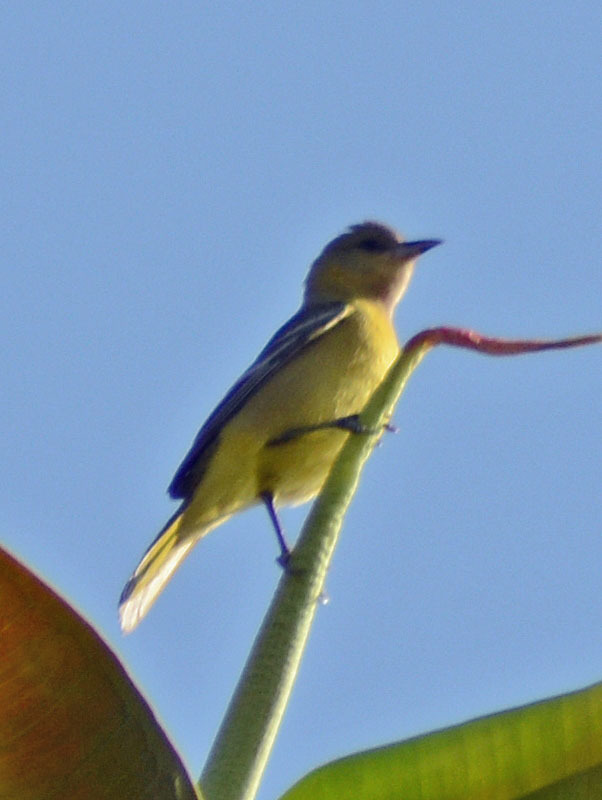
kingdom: Animalia
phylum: Chordata
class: Aves
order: Passeriformes
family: Icteridae
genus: Icterus
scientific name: Icterus spurius
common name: Orchard oriole
